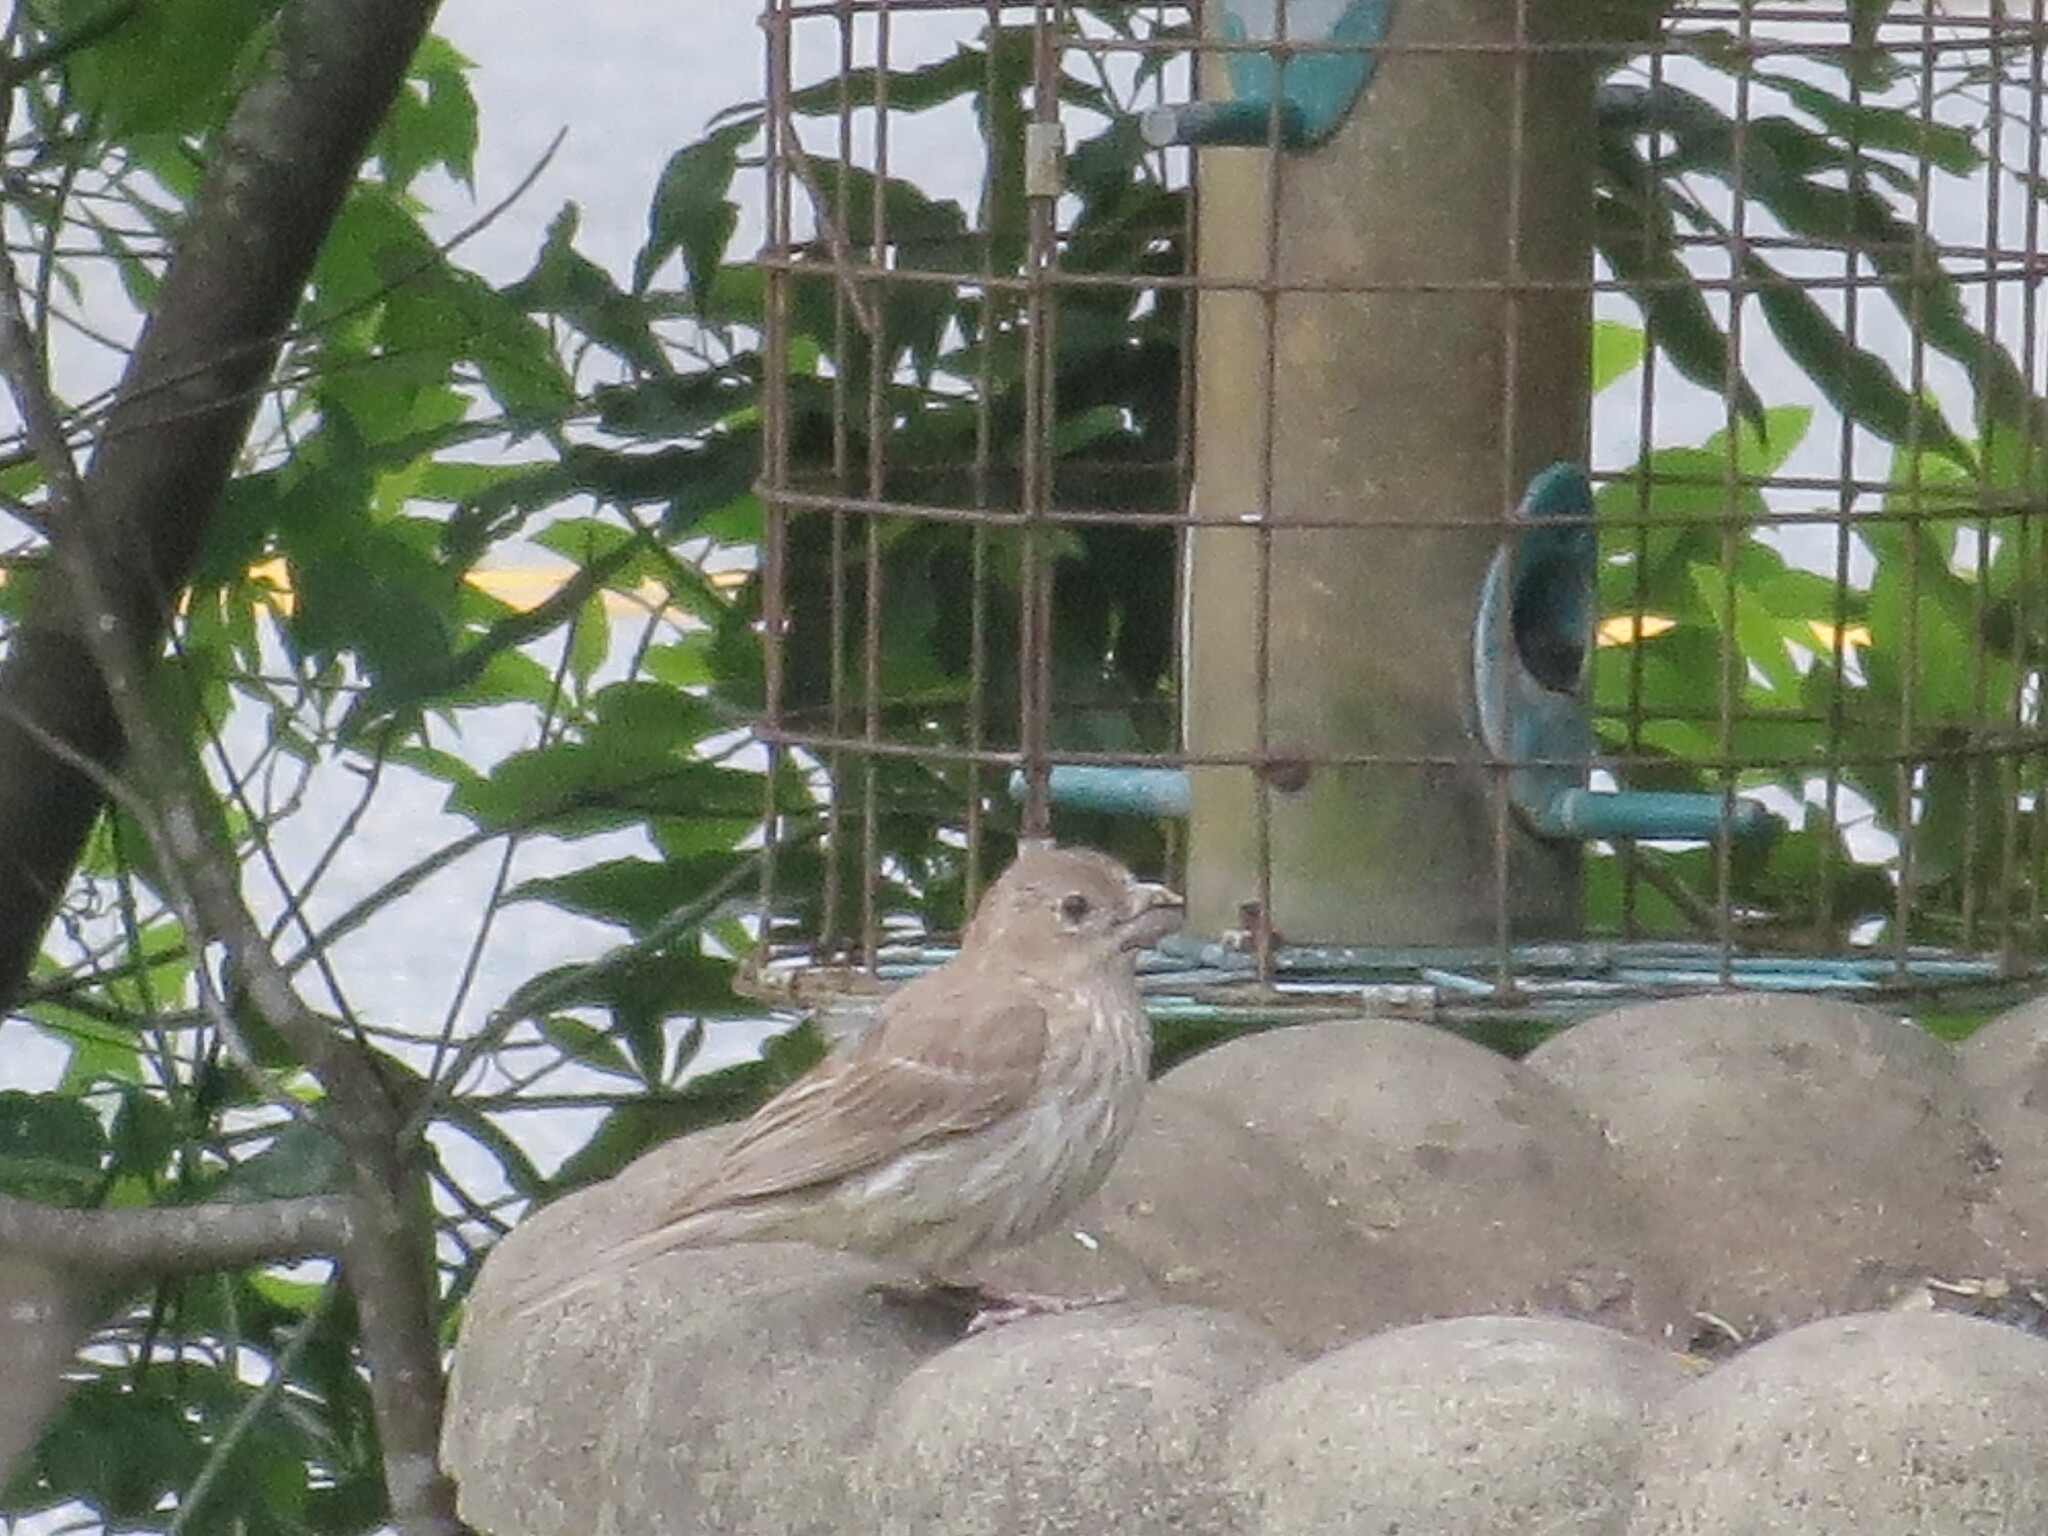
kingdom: Animalia
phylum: Chordata
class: Aves
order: Passeriformes
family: Fringillidae
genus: Haemorhous
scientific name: Haemorhous mexicanus
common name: House finch
